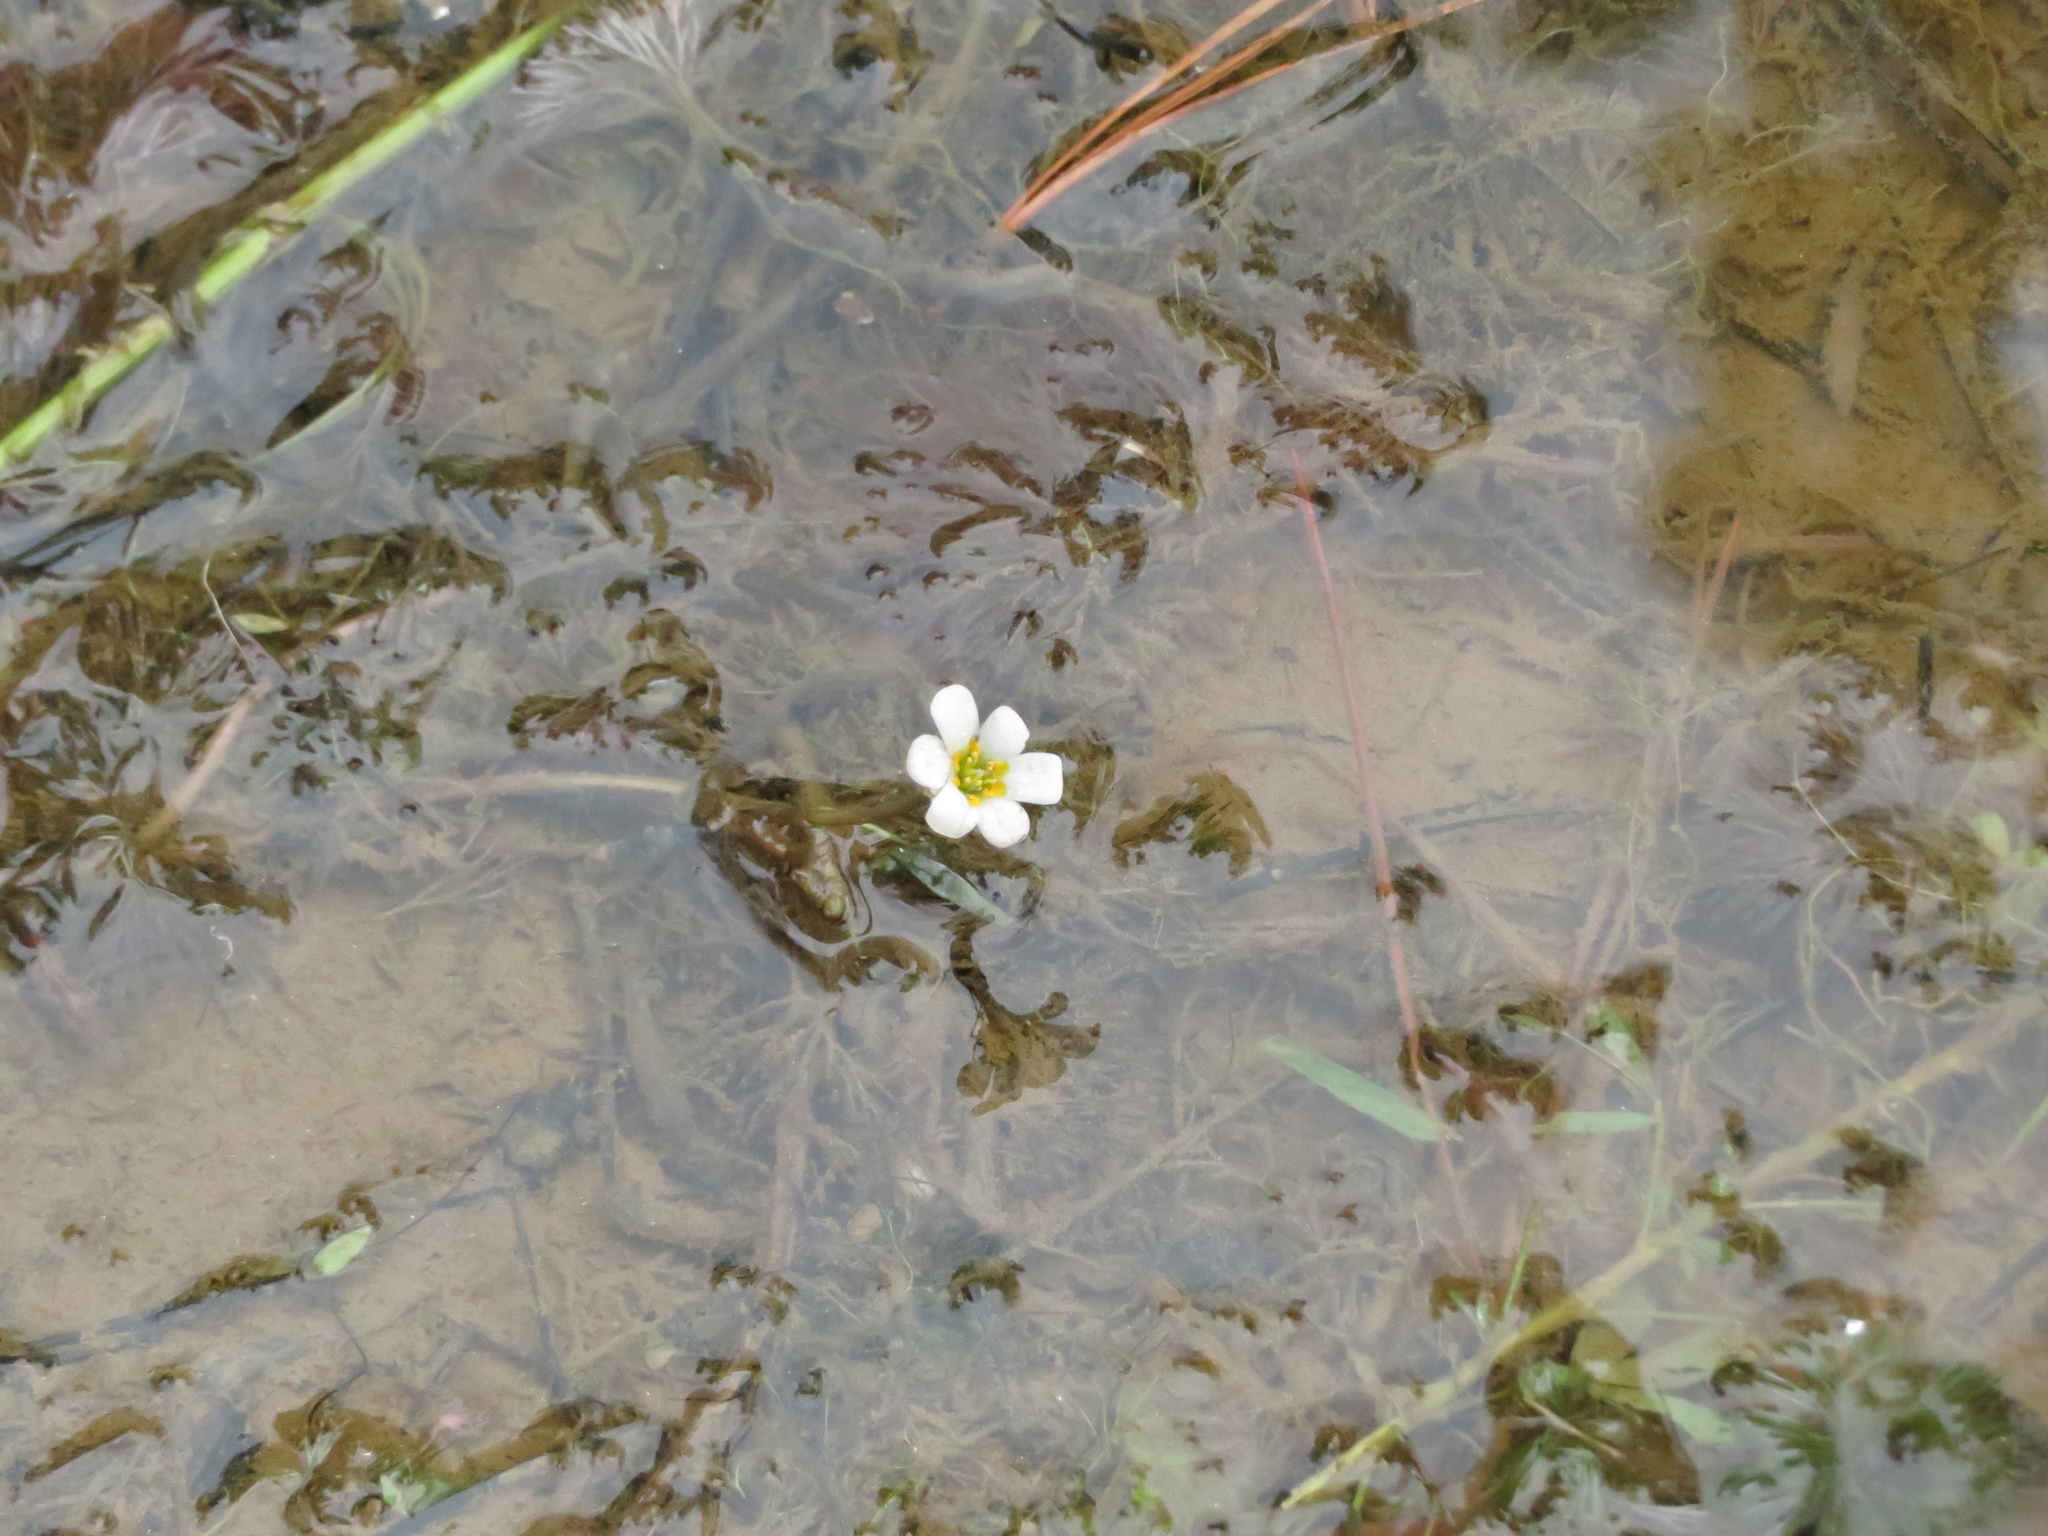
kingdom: Plantae
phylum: Tracheophyta
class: Magnoliopsida
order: Nymphaeales
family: Cabombaceae
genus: Cabomba
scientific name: Cabomba caroliniana
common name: Fanwort
